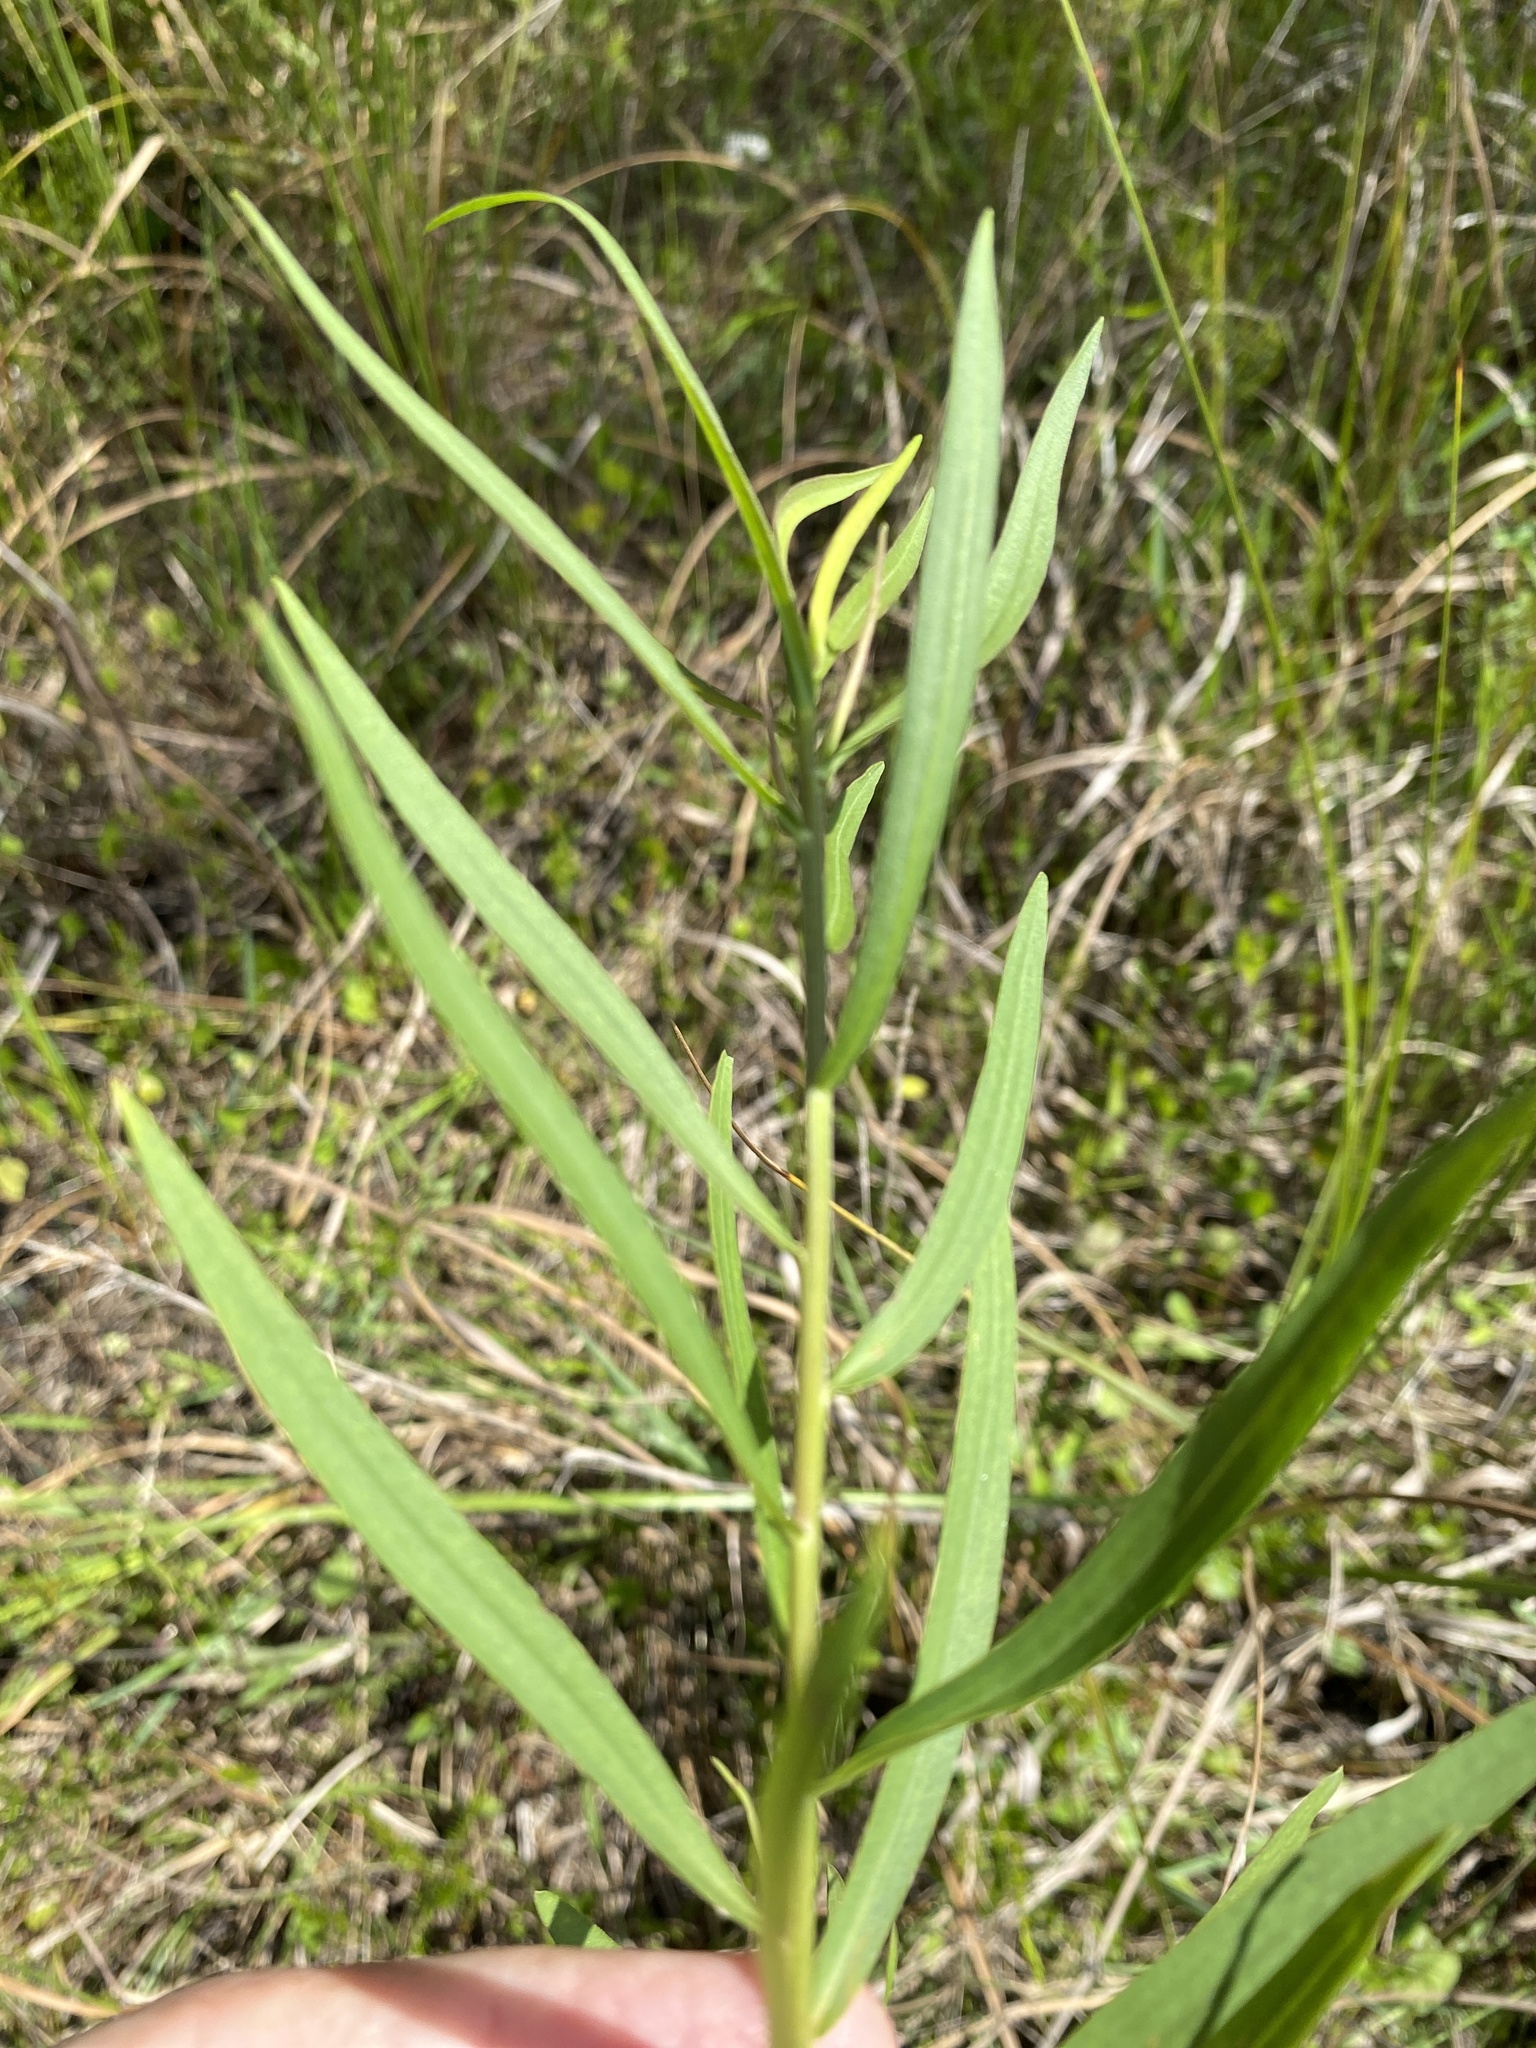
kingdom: Plantae
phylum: Tracheophyta
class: Magnoliopsida
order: Asterales
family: Asteraceae
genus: Euthamia
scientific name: Euthamia weakleyi
